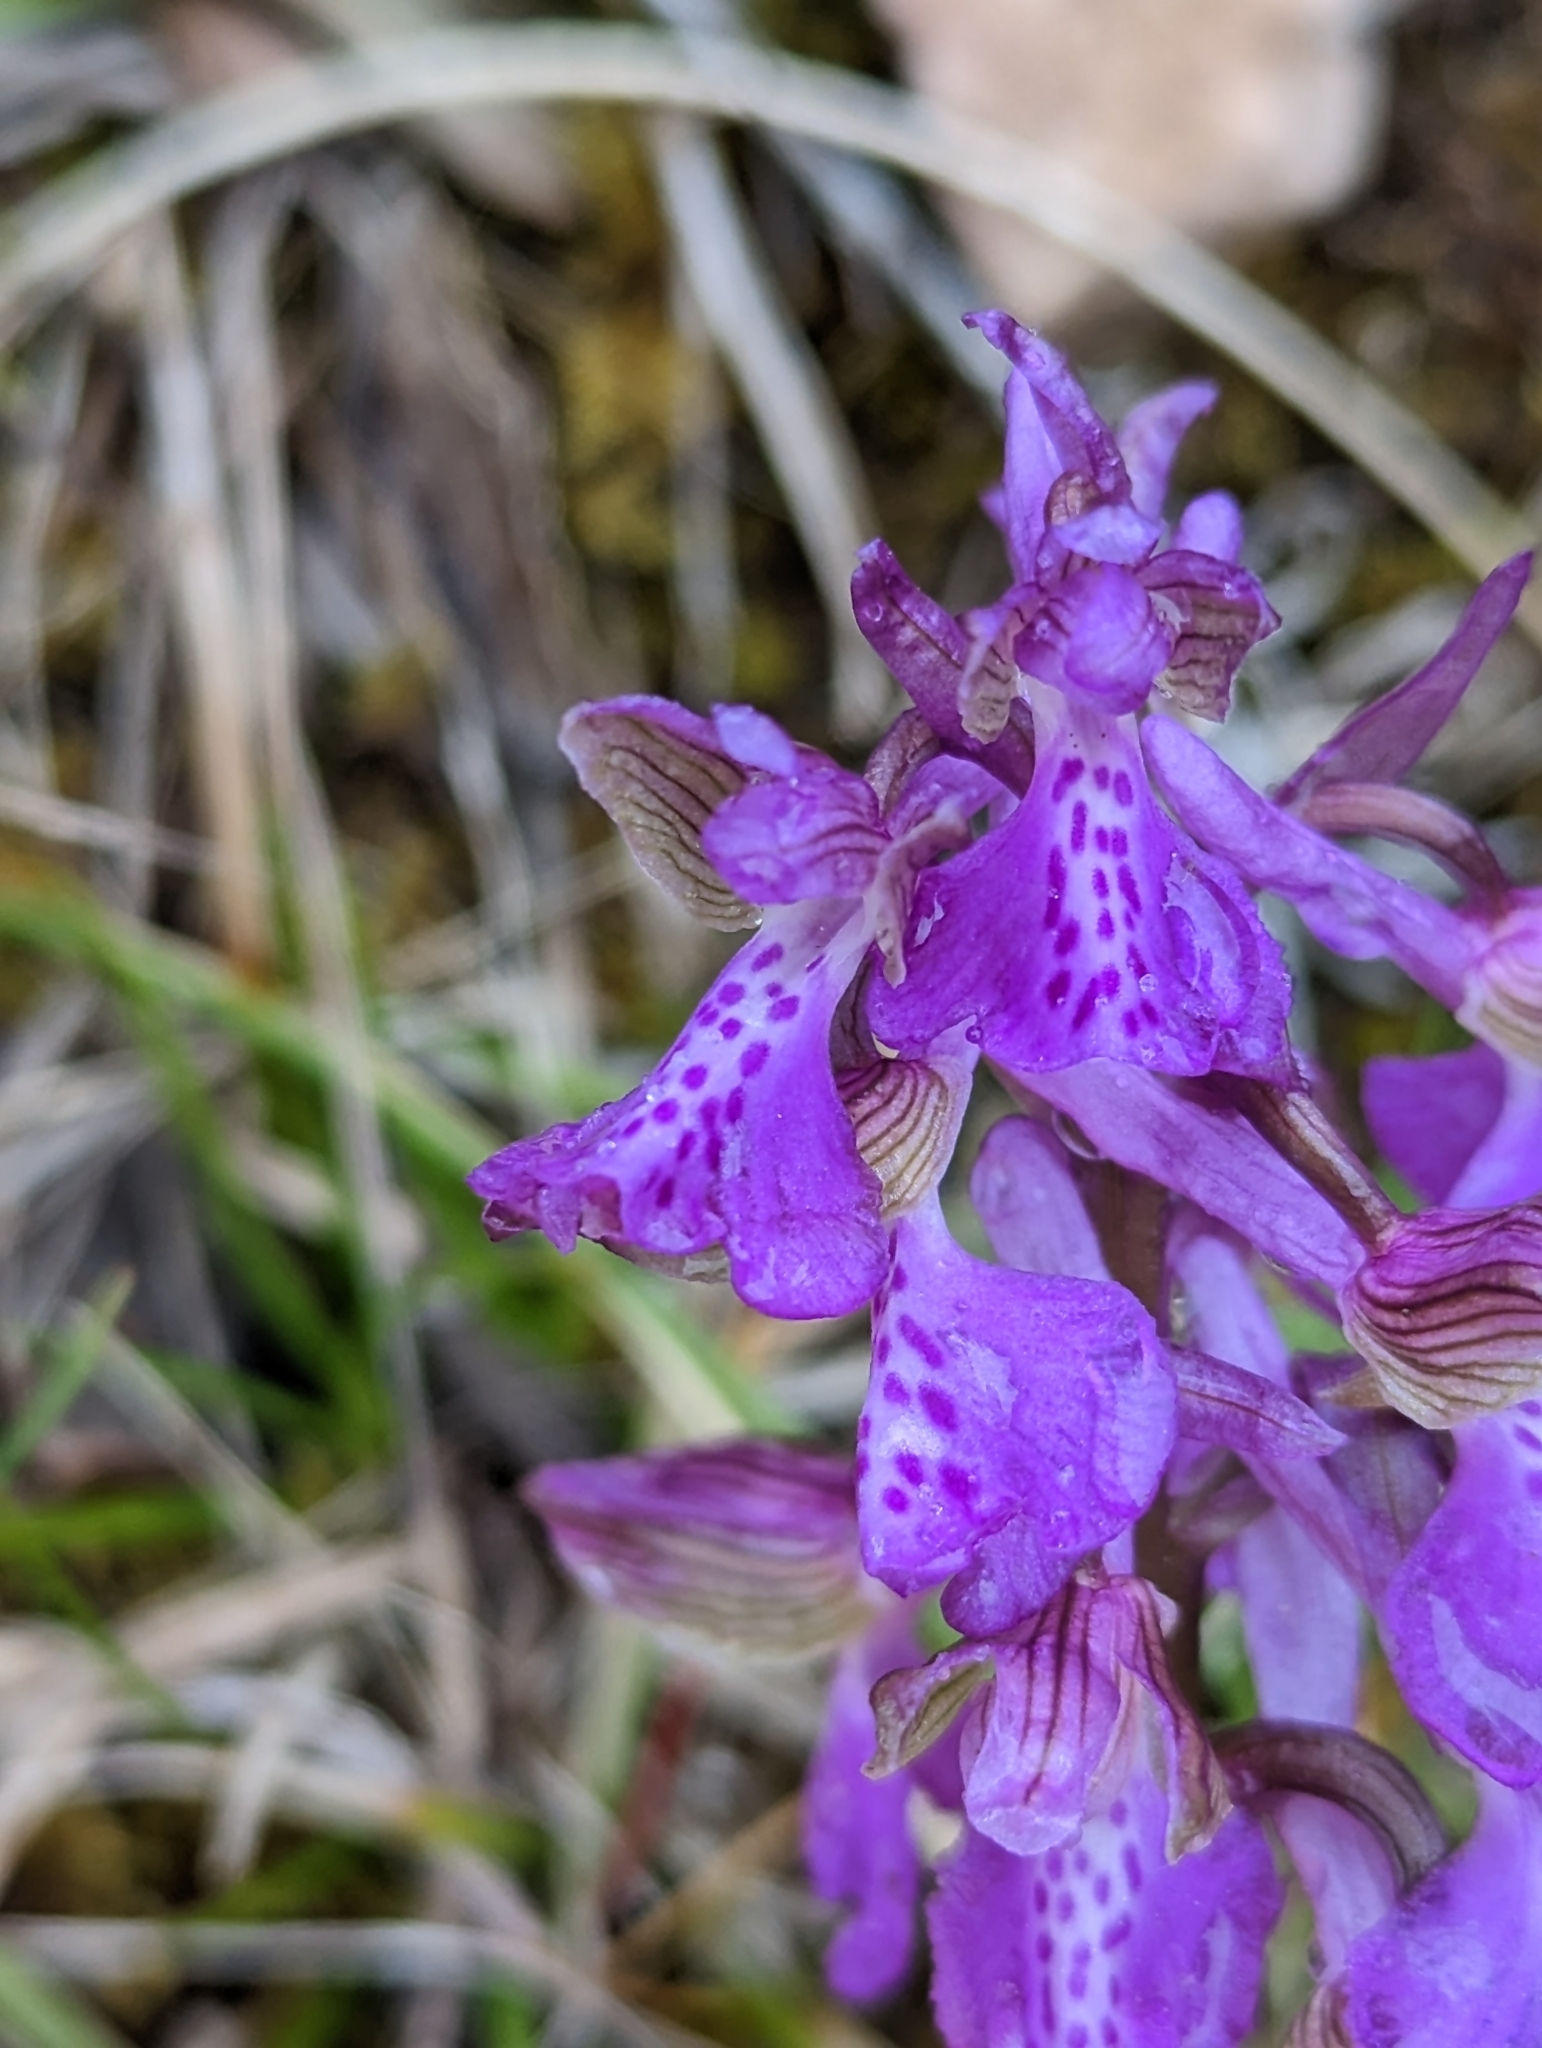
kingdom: Plantae
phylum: Tracheophyta
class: Liliopsida
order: Asparagales
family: Orchidaceae
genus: Anacamptis
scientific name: Anacamptis morio
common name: Green-winged orchid
